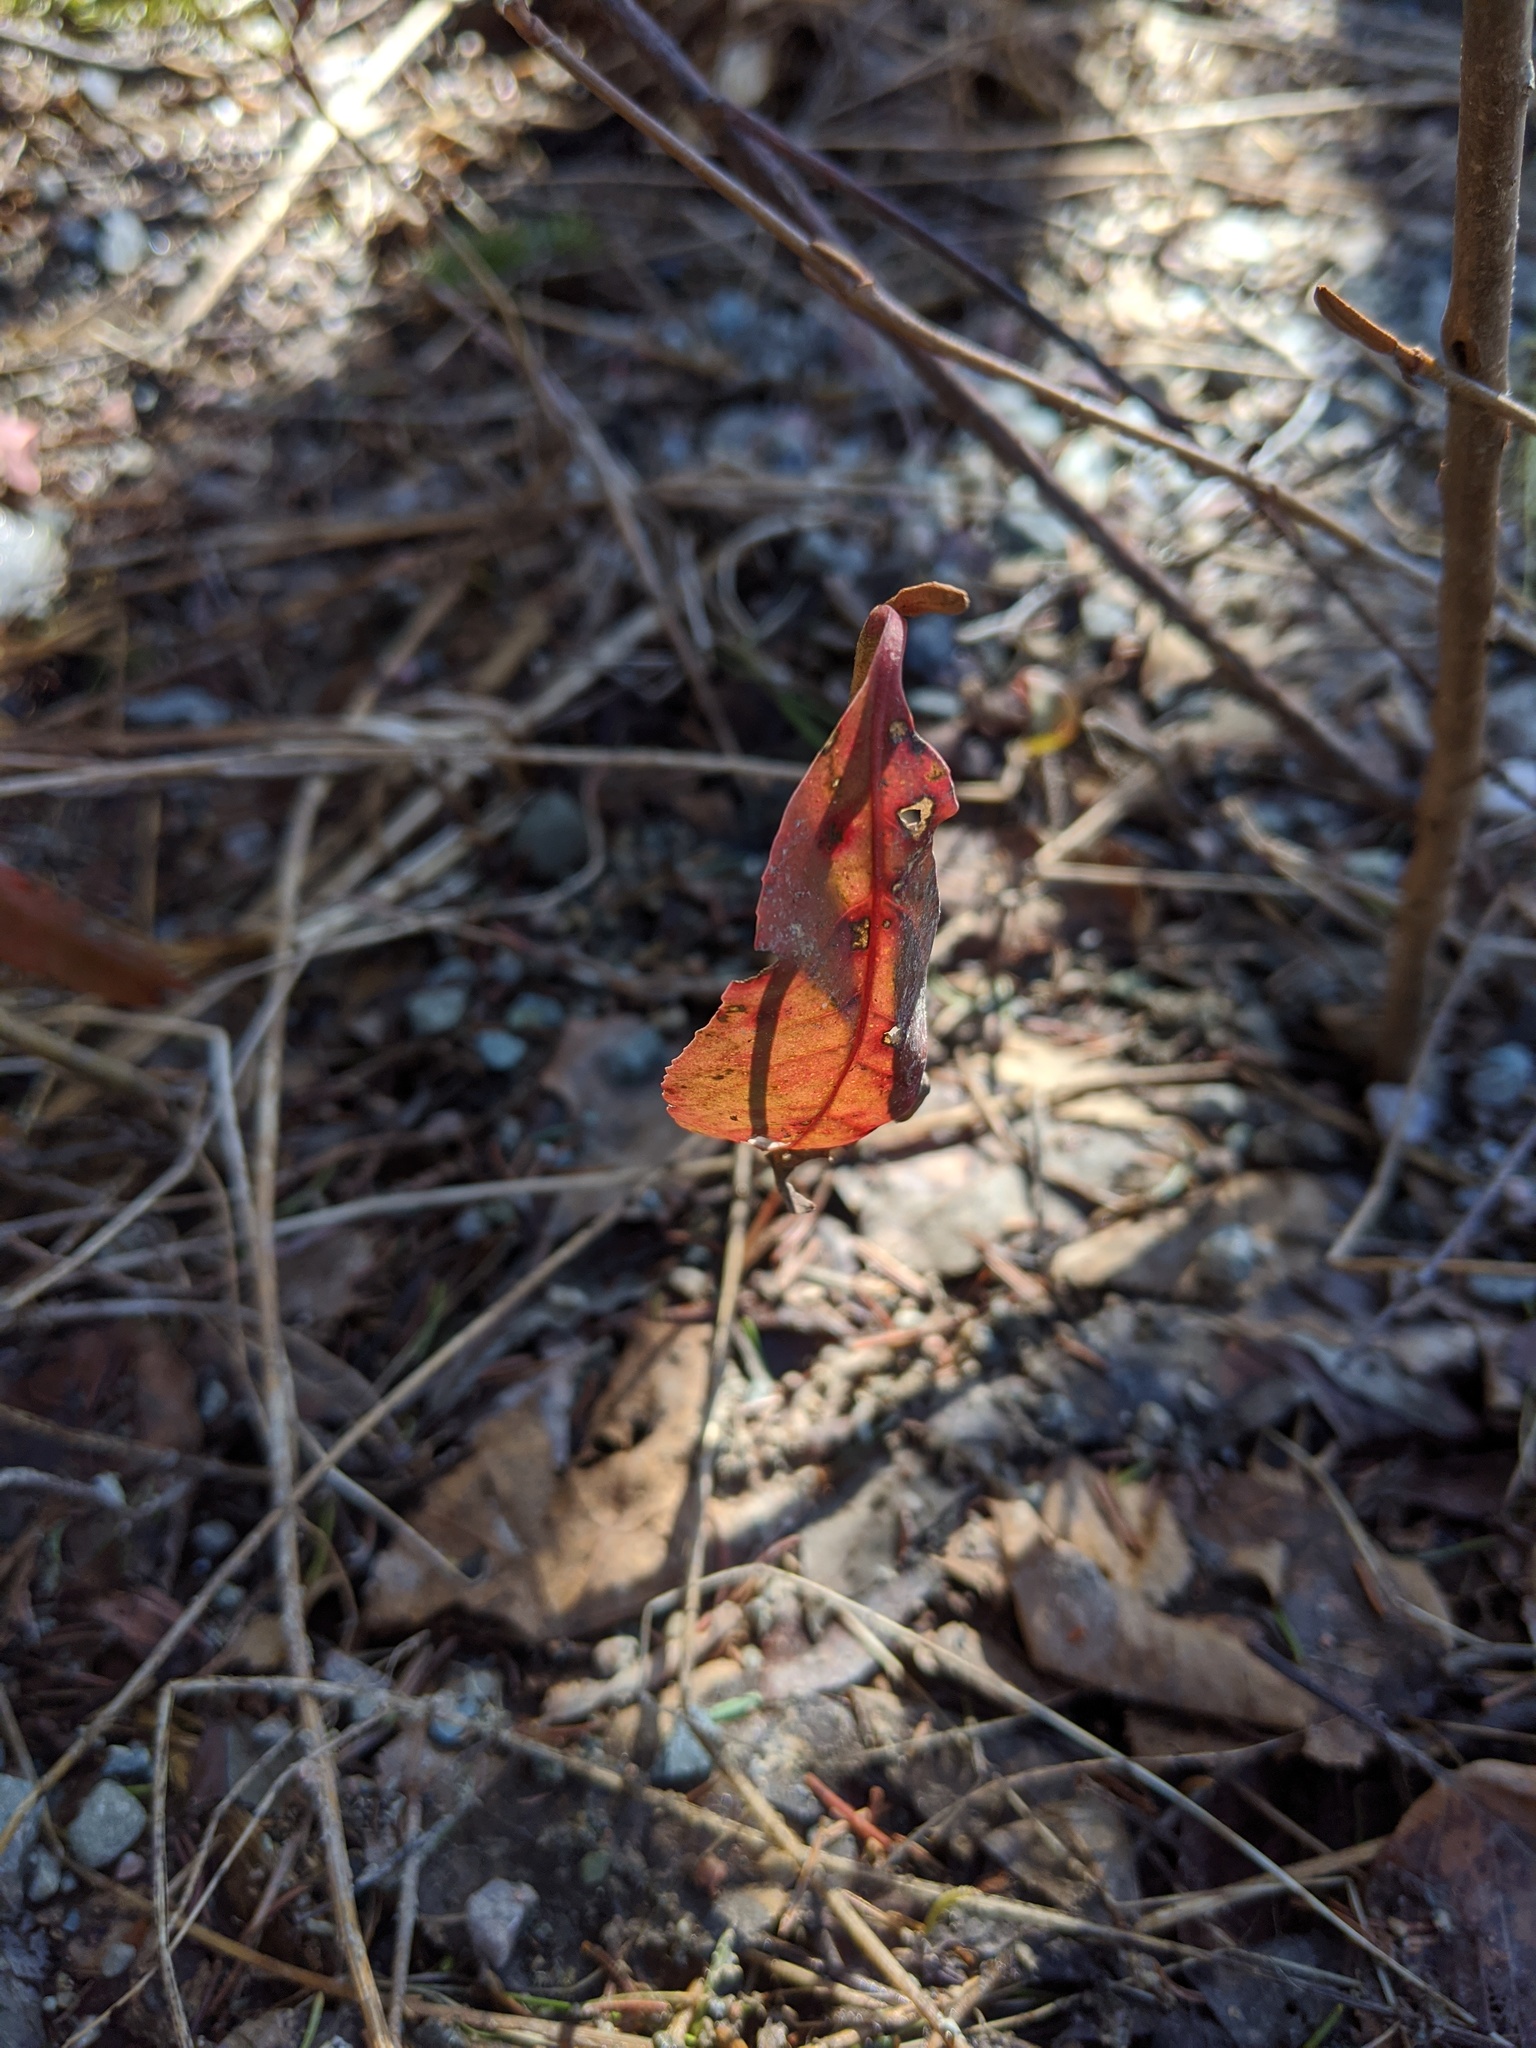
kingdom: Plantae
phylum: Tracheophyta
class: Magnoliopsida
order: Dipsacales
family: Viburnaceae
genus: Viburnum
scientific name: Viburnum cassinoides
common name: Swamp haw
